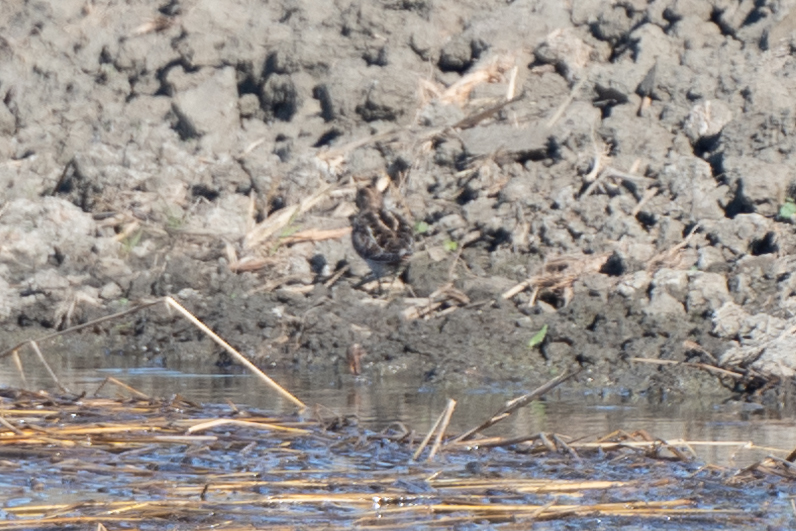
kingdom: Animalia
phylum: Chordata
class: Aves
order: Charadriiformes
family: Scolopacidae
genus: Gallinago
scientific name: Gallinago delicata
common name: Wilson's snipe
